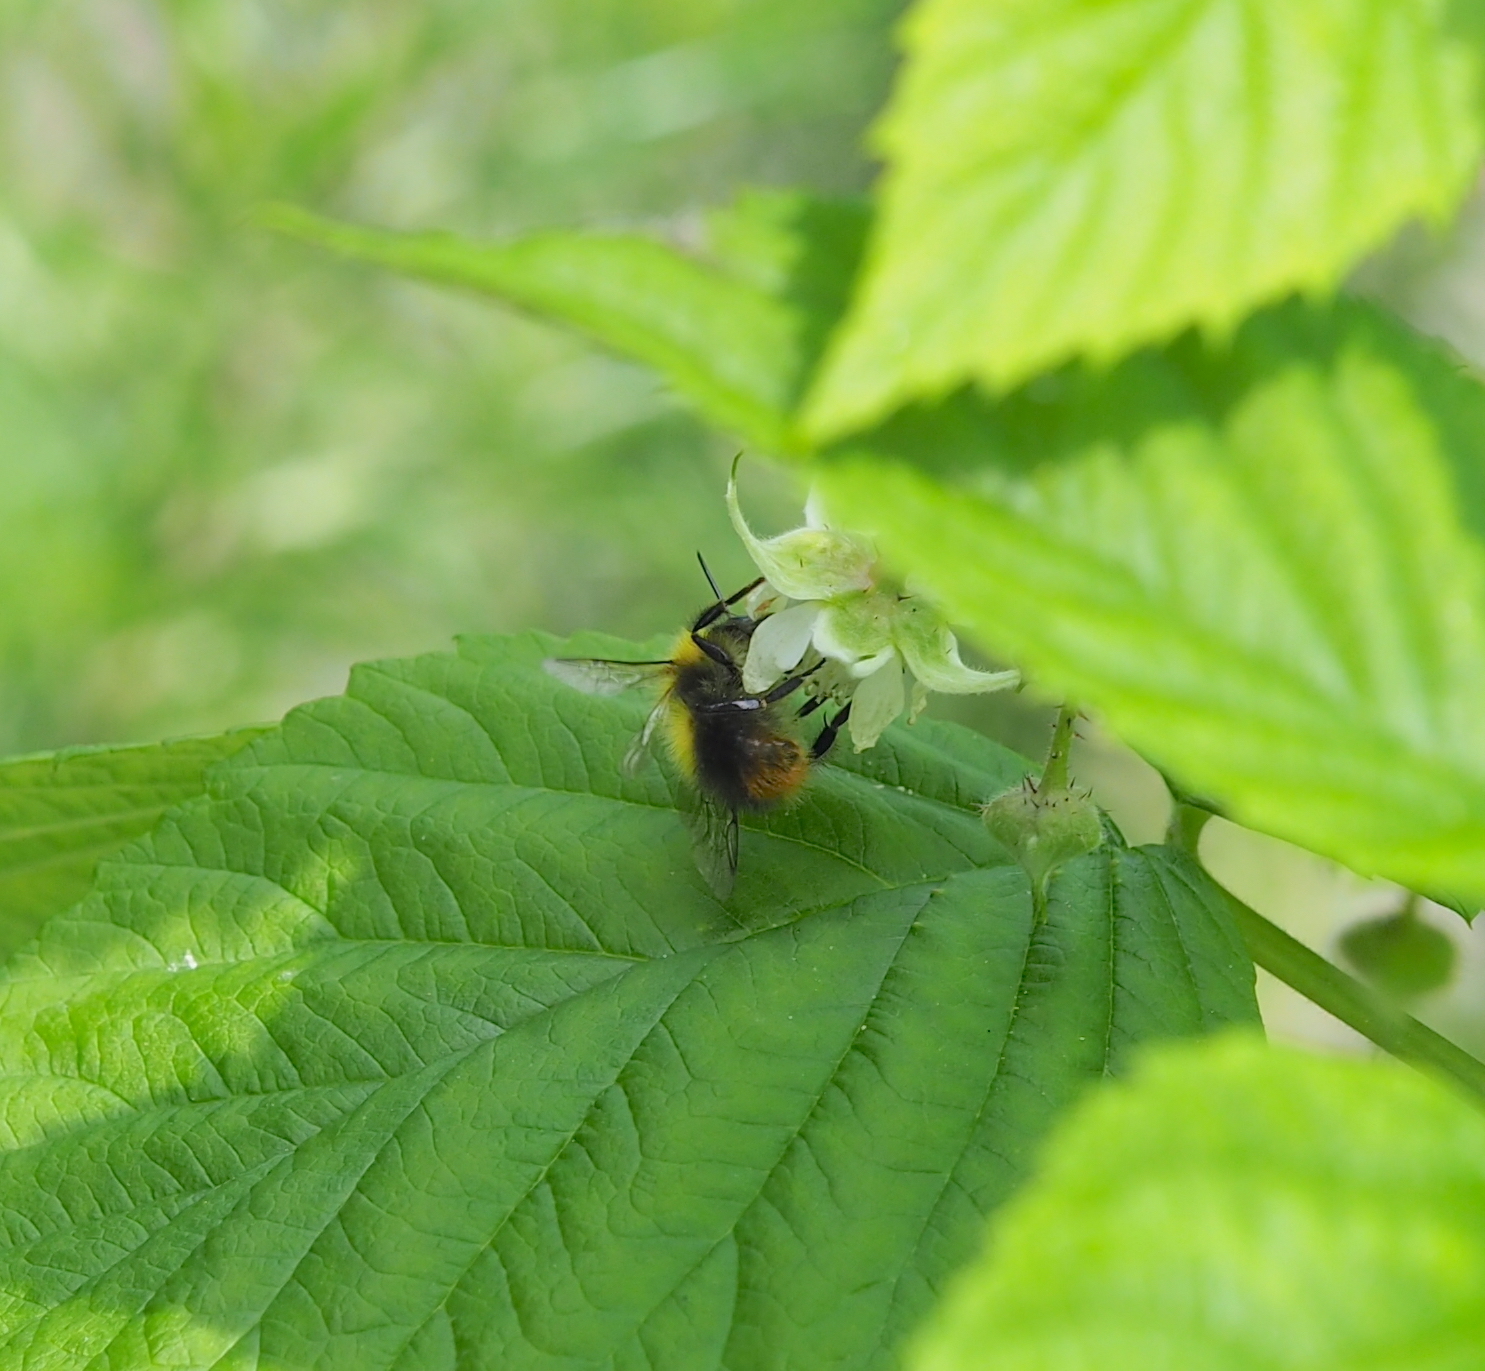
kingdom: Animalia
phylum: Arthropoda
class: Insecta
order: Hymenoptera
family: Apidae
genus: Bombus
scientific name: Bombus pratorum
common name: Early humble-bee
